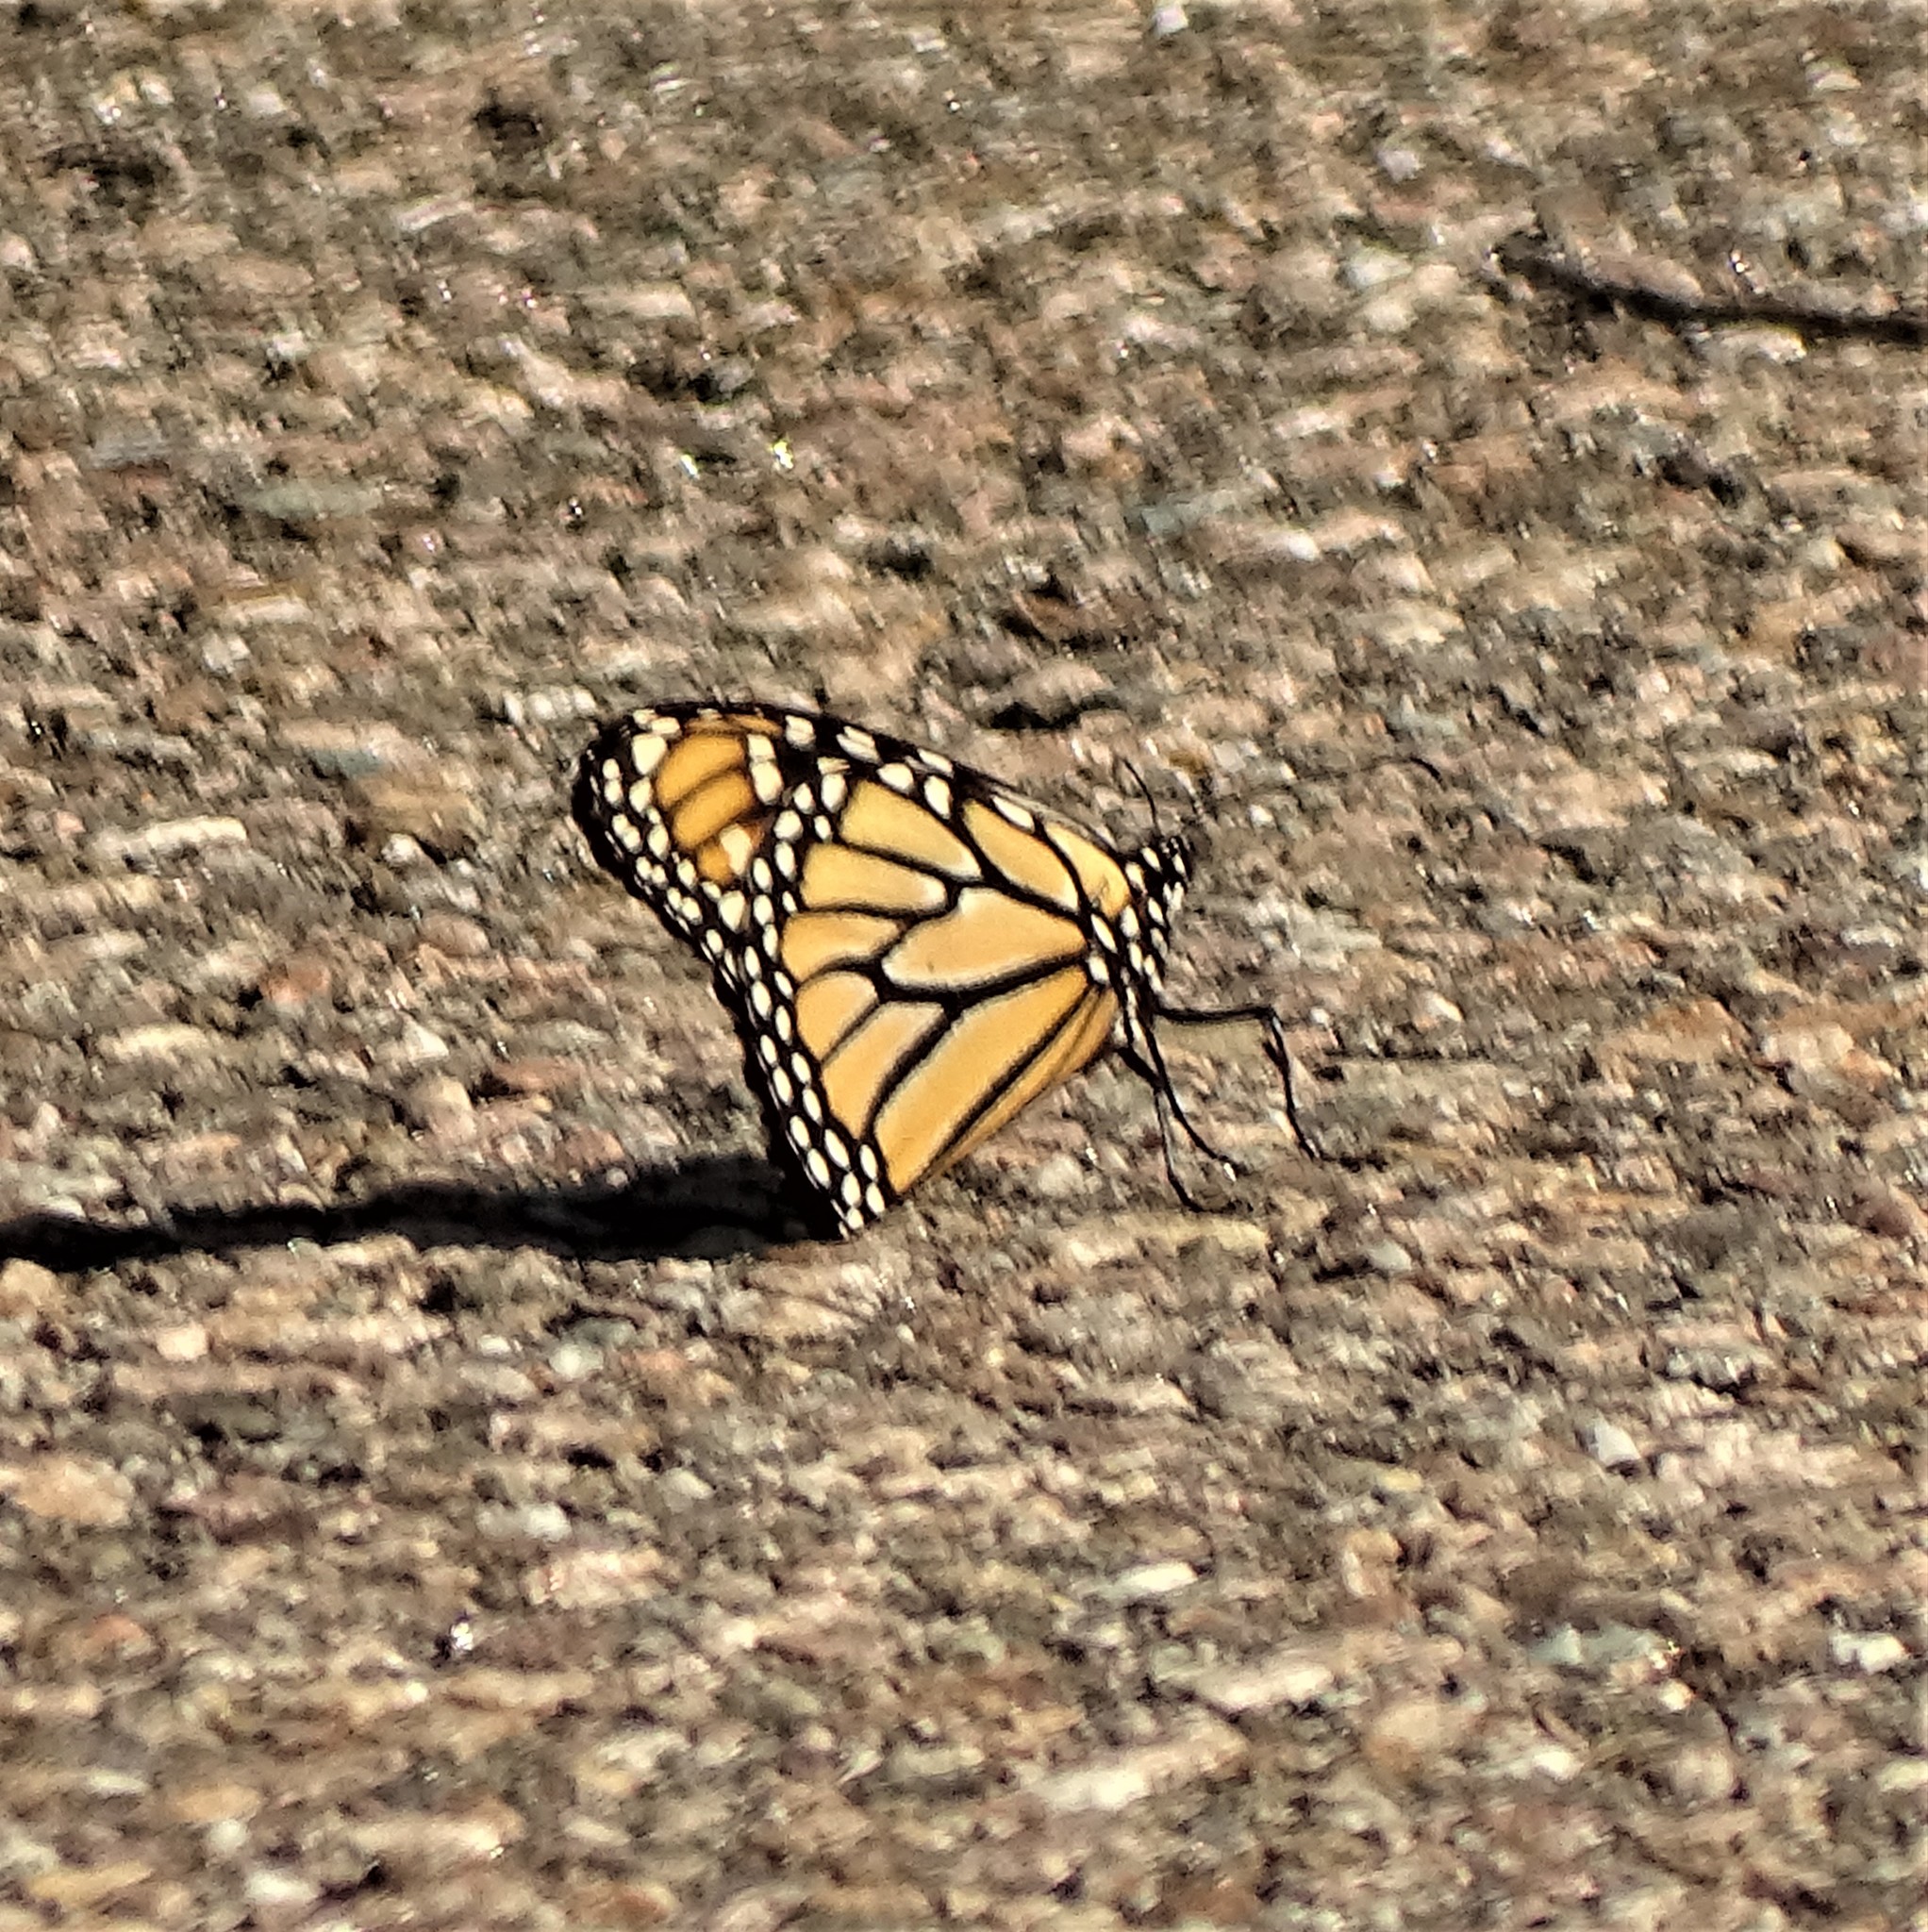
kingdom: Animalia
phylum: Arthropoda
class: Insecta
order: Lepidoptera
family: Nymphalidae
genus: Danaus
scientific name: Danaus plexippus
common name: Monarch
